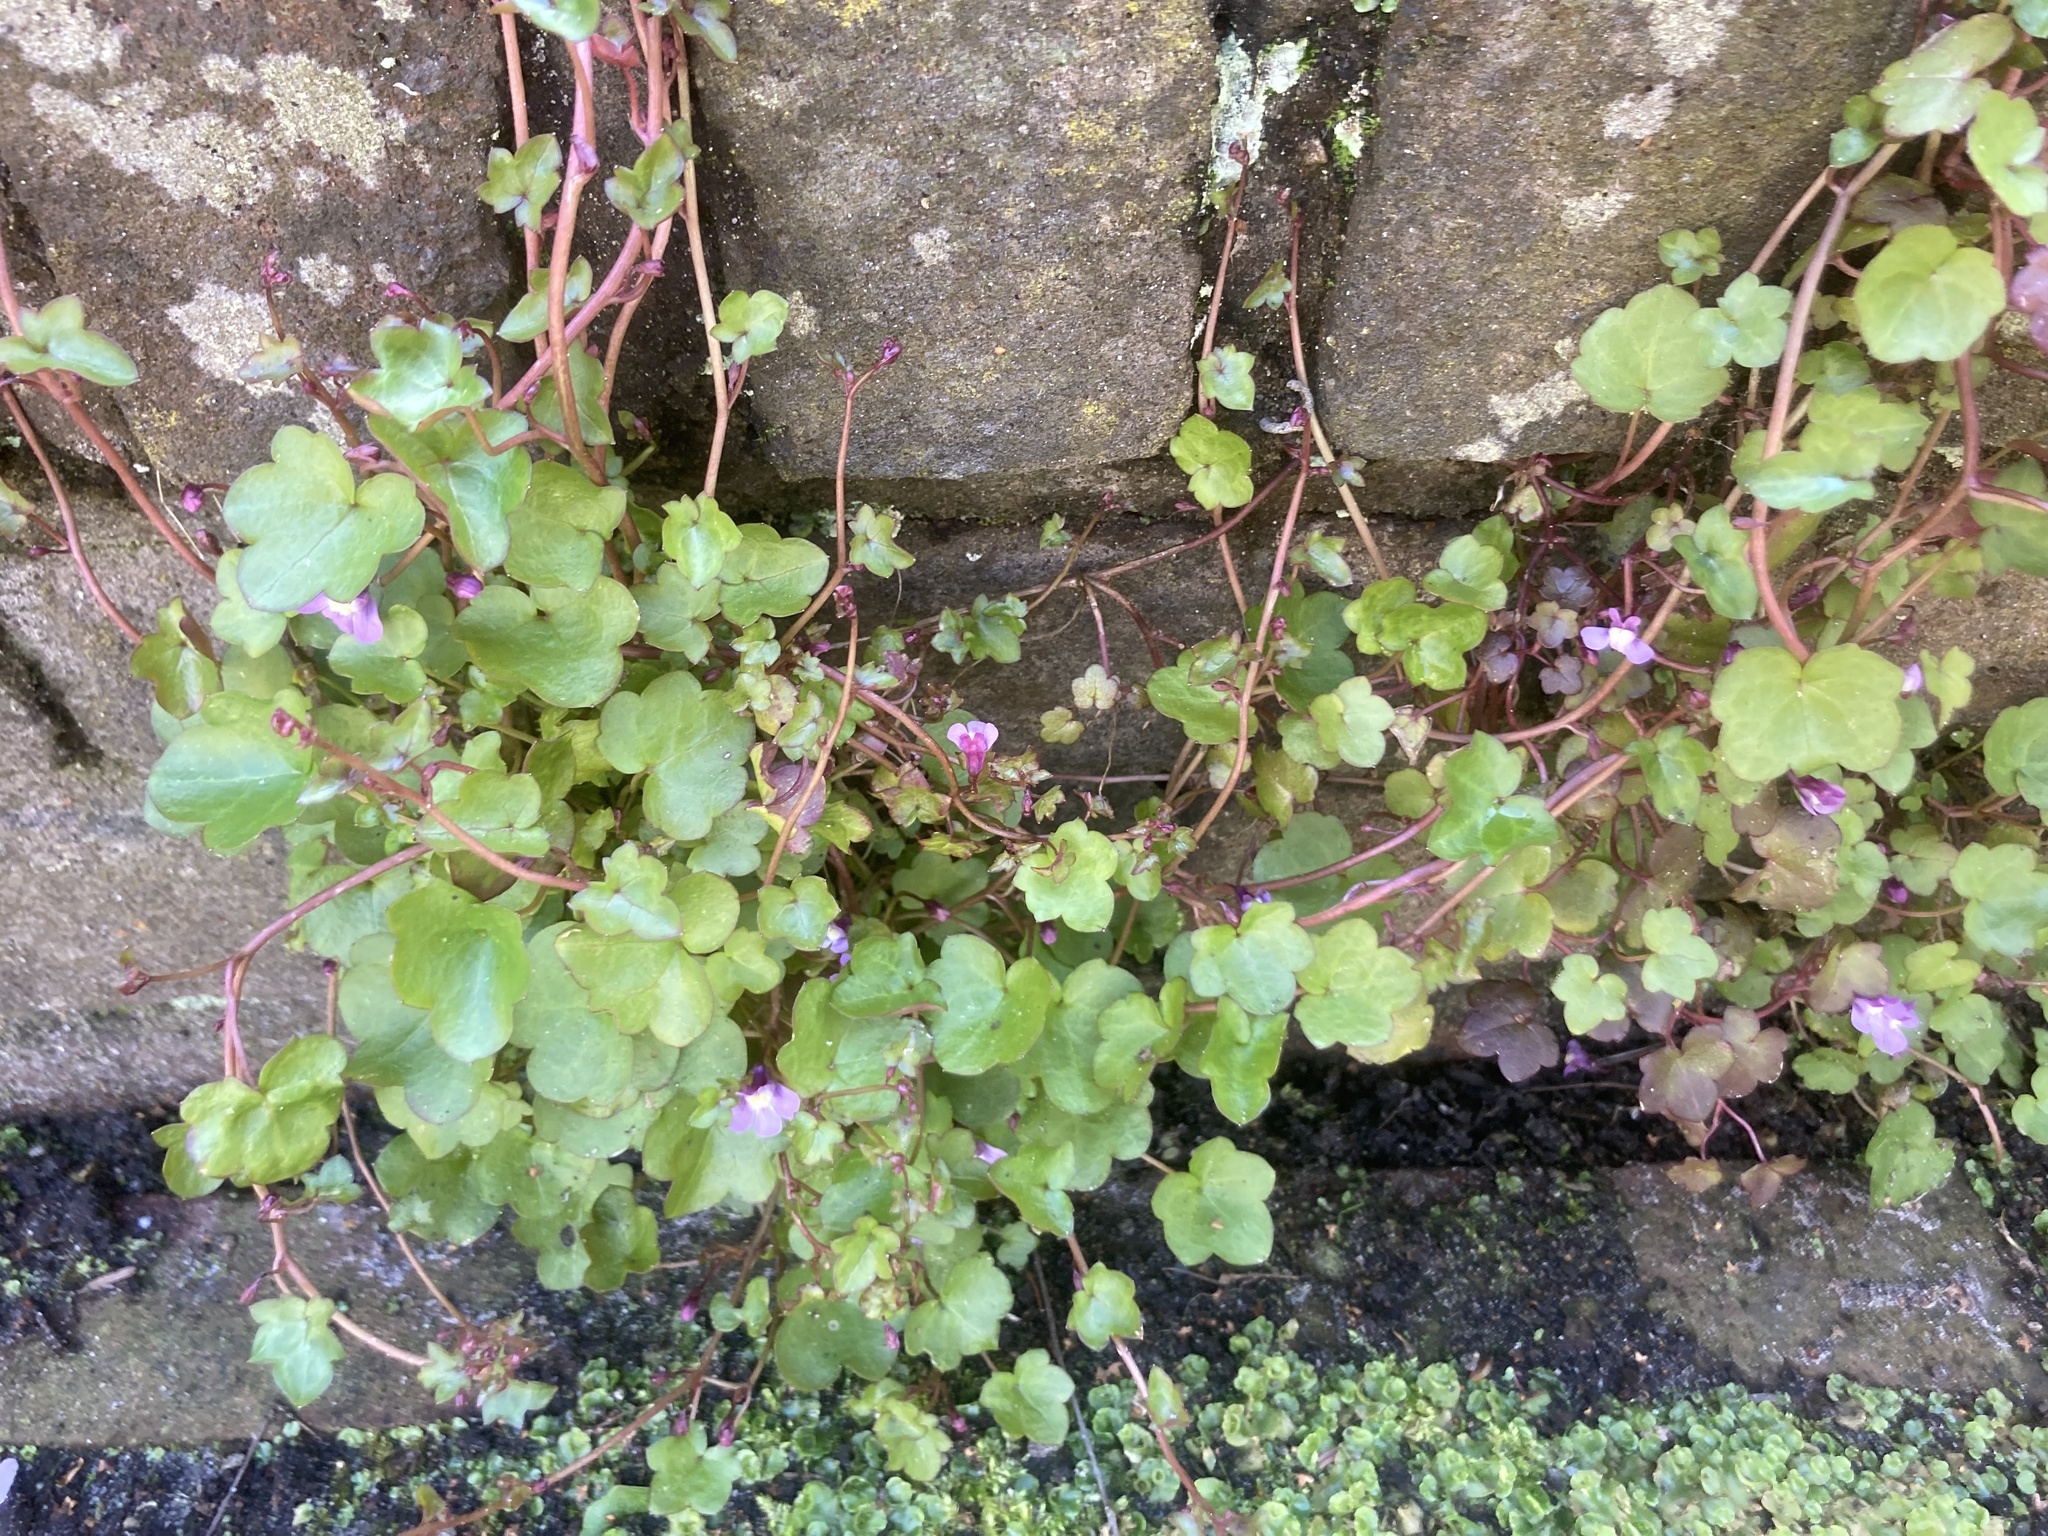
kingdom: Plantae
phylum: Tracheophyta
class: Magnoliopsida
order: Lamiales
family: Plantaginaceae
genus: Cymbalaria
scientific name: Cymbalaria muralis
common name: Ivy-leaved toadflax
